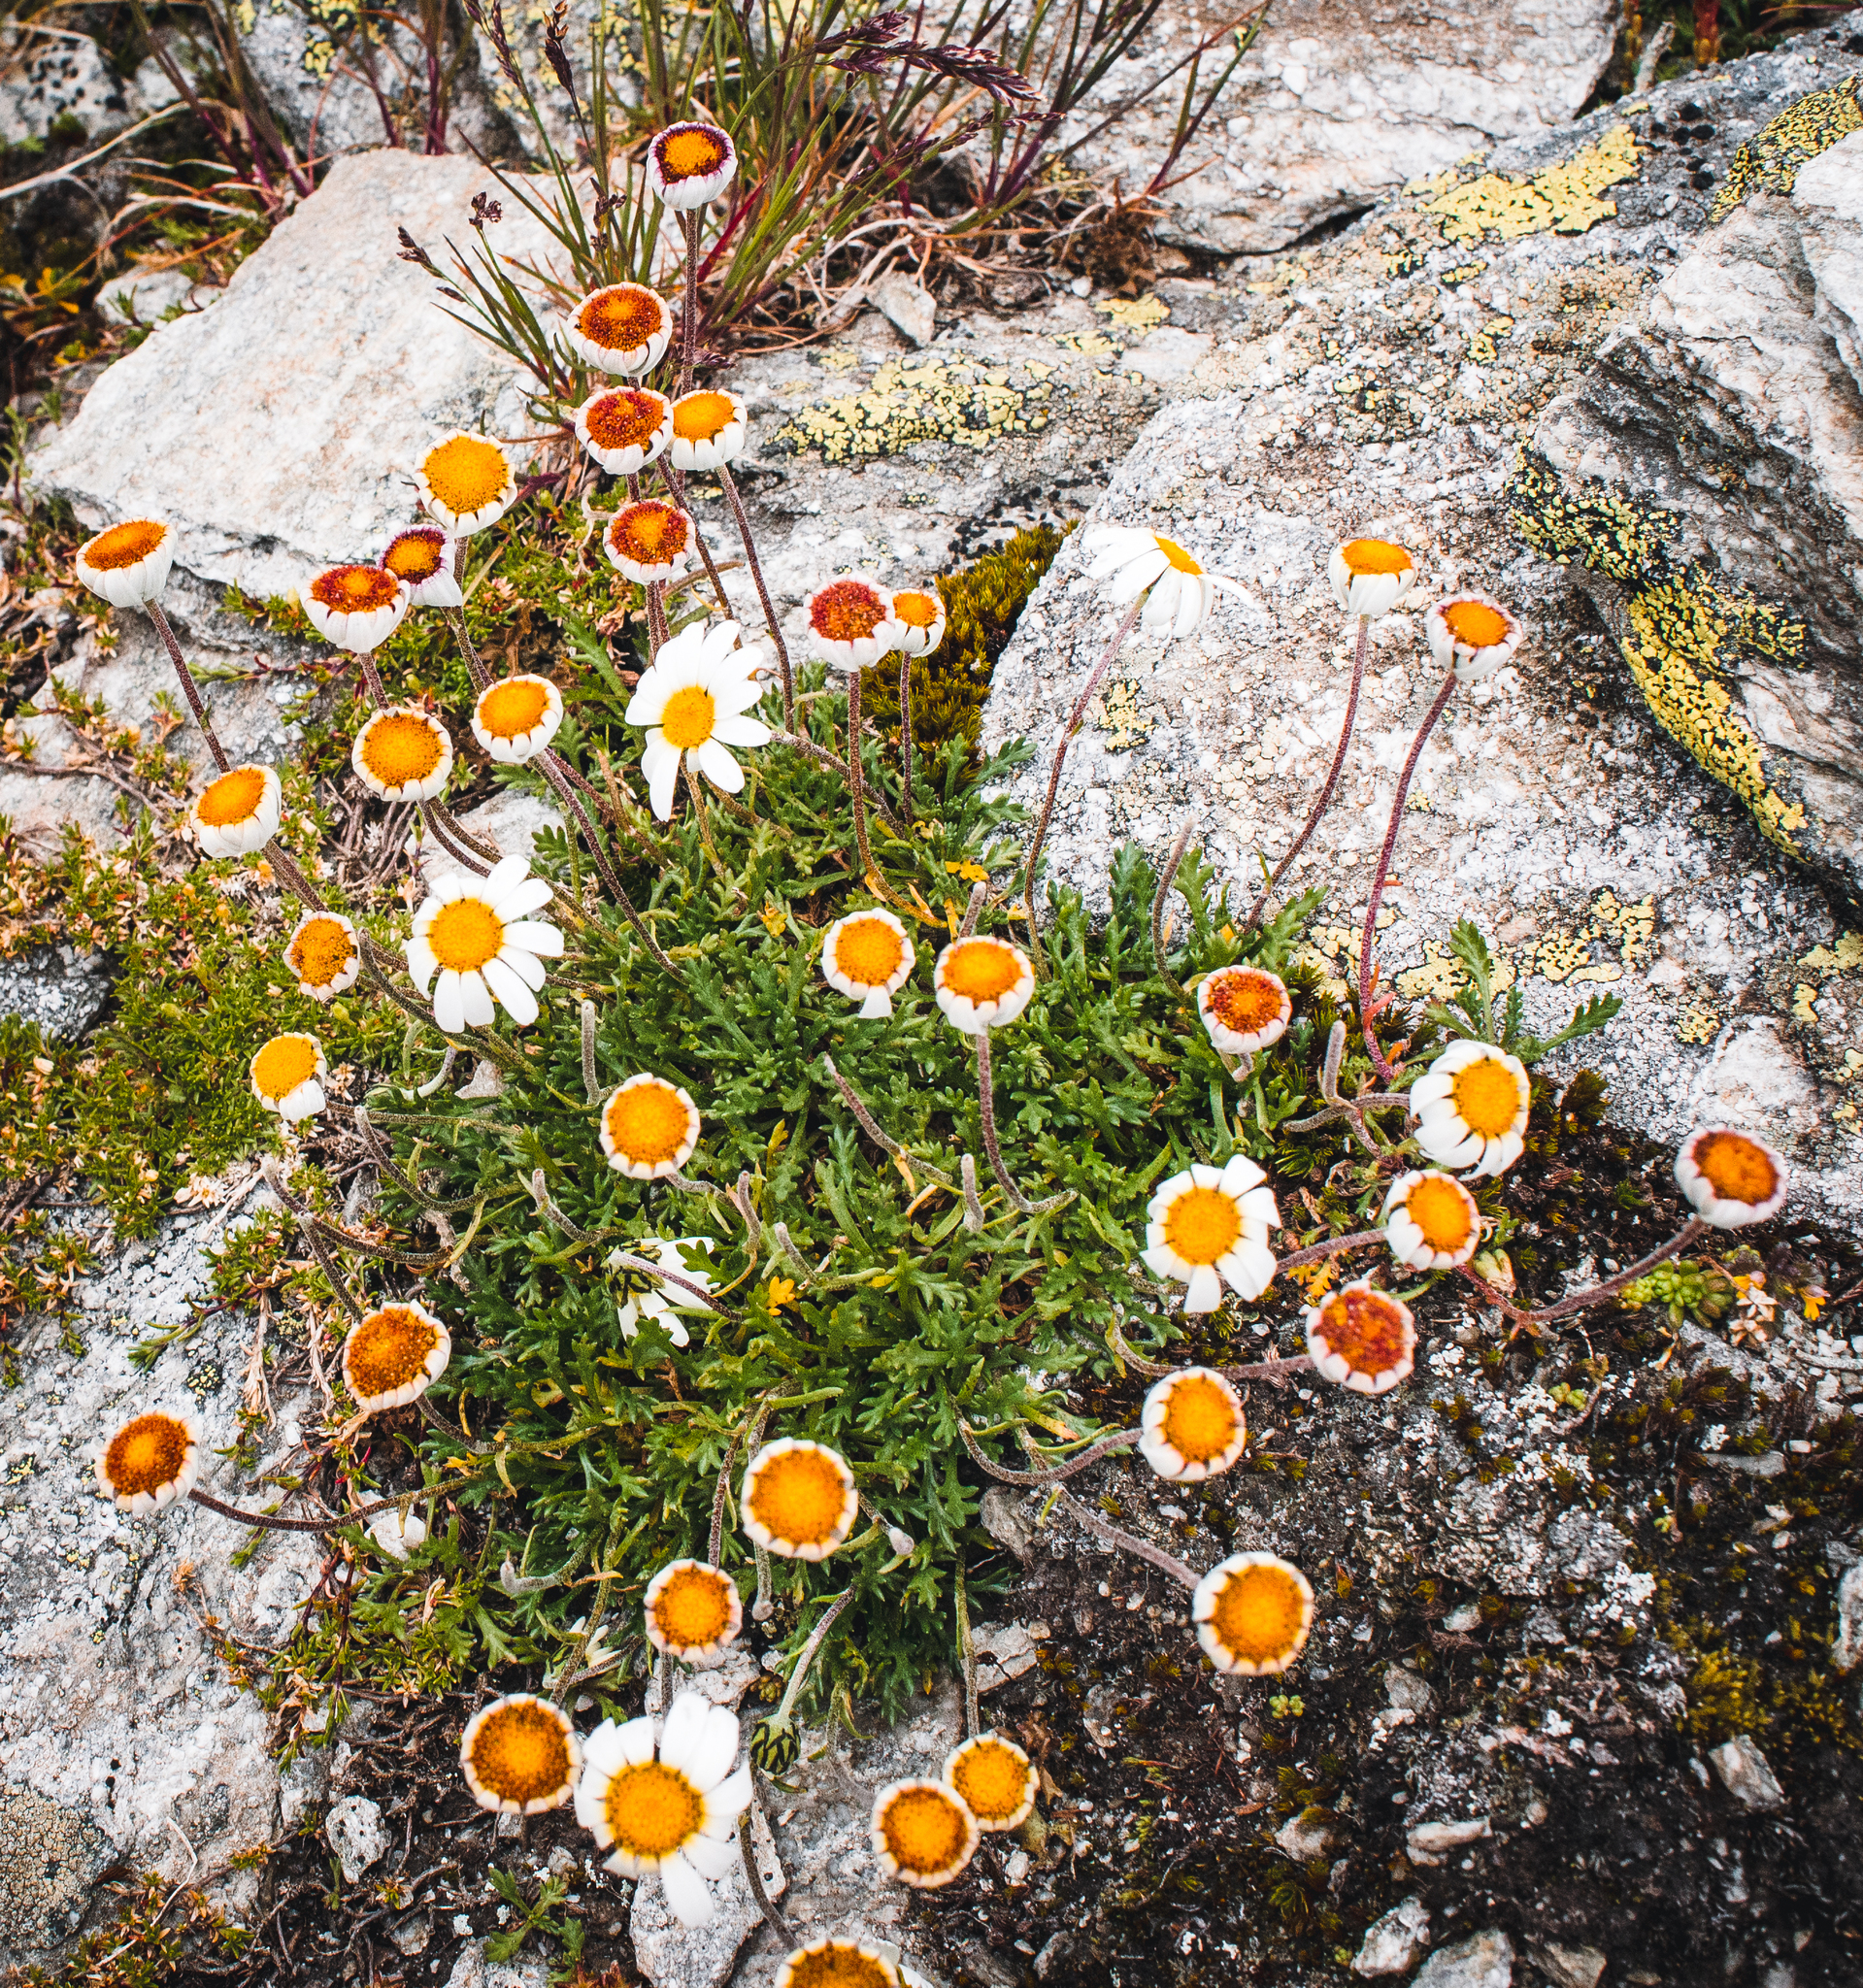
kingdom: Plantae
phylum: Tracheophyta
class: Magnoliopsida
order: Asterales
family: Asteraceae
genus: Leucanthemopsis
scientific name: Leucanthemopsis alpina
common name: Alpine moon daisy
